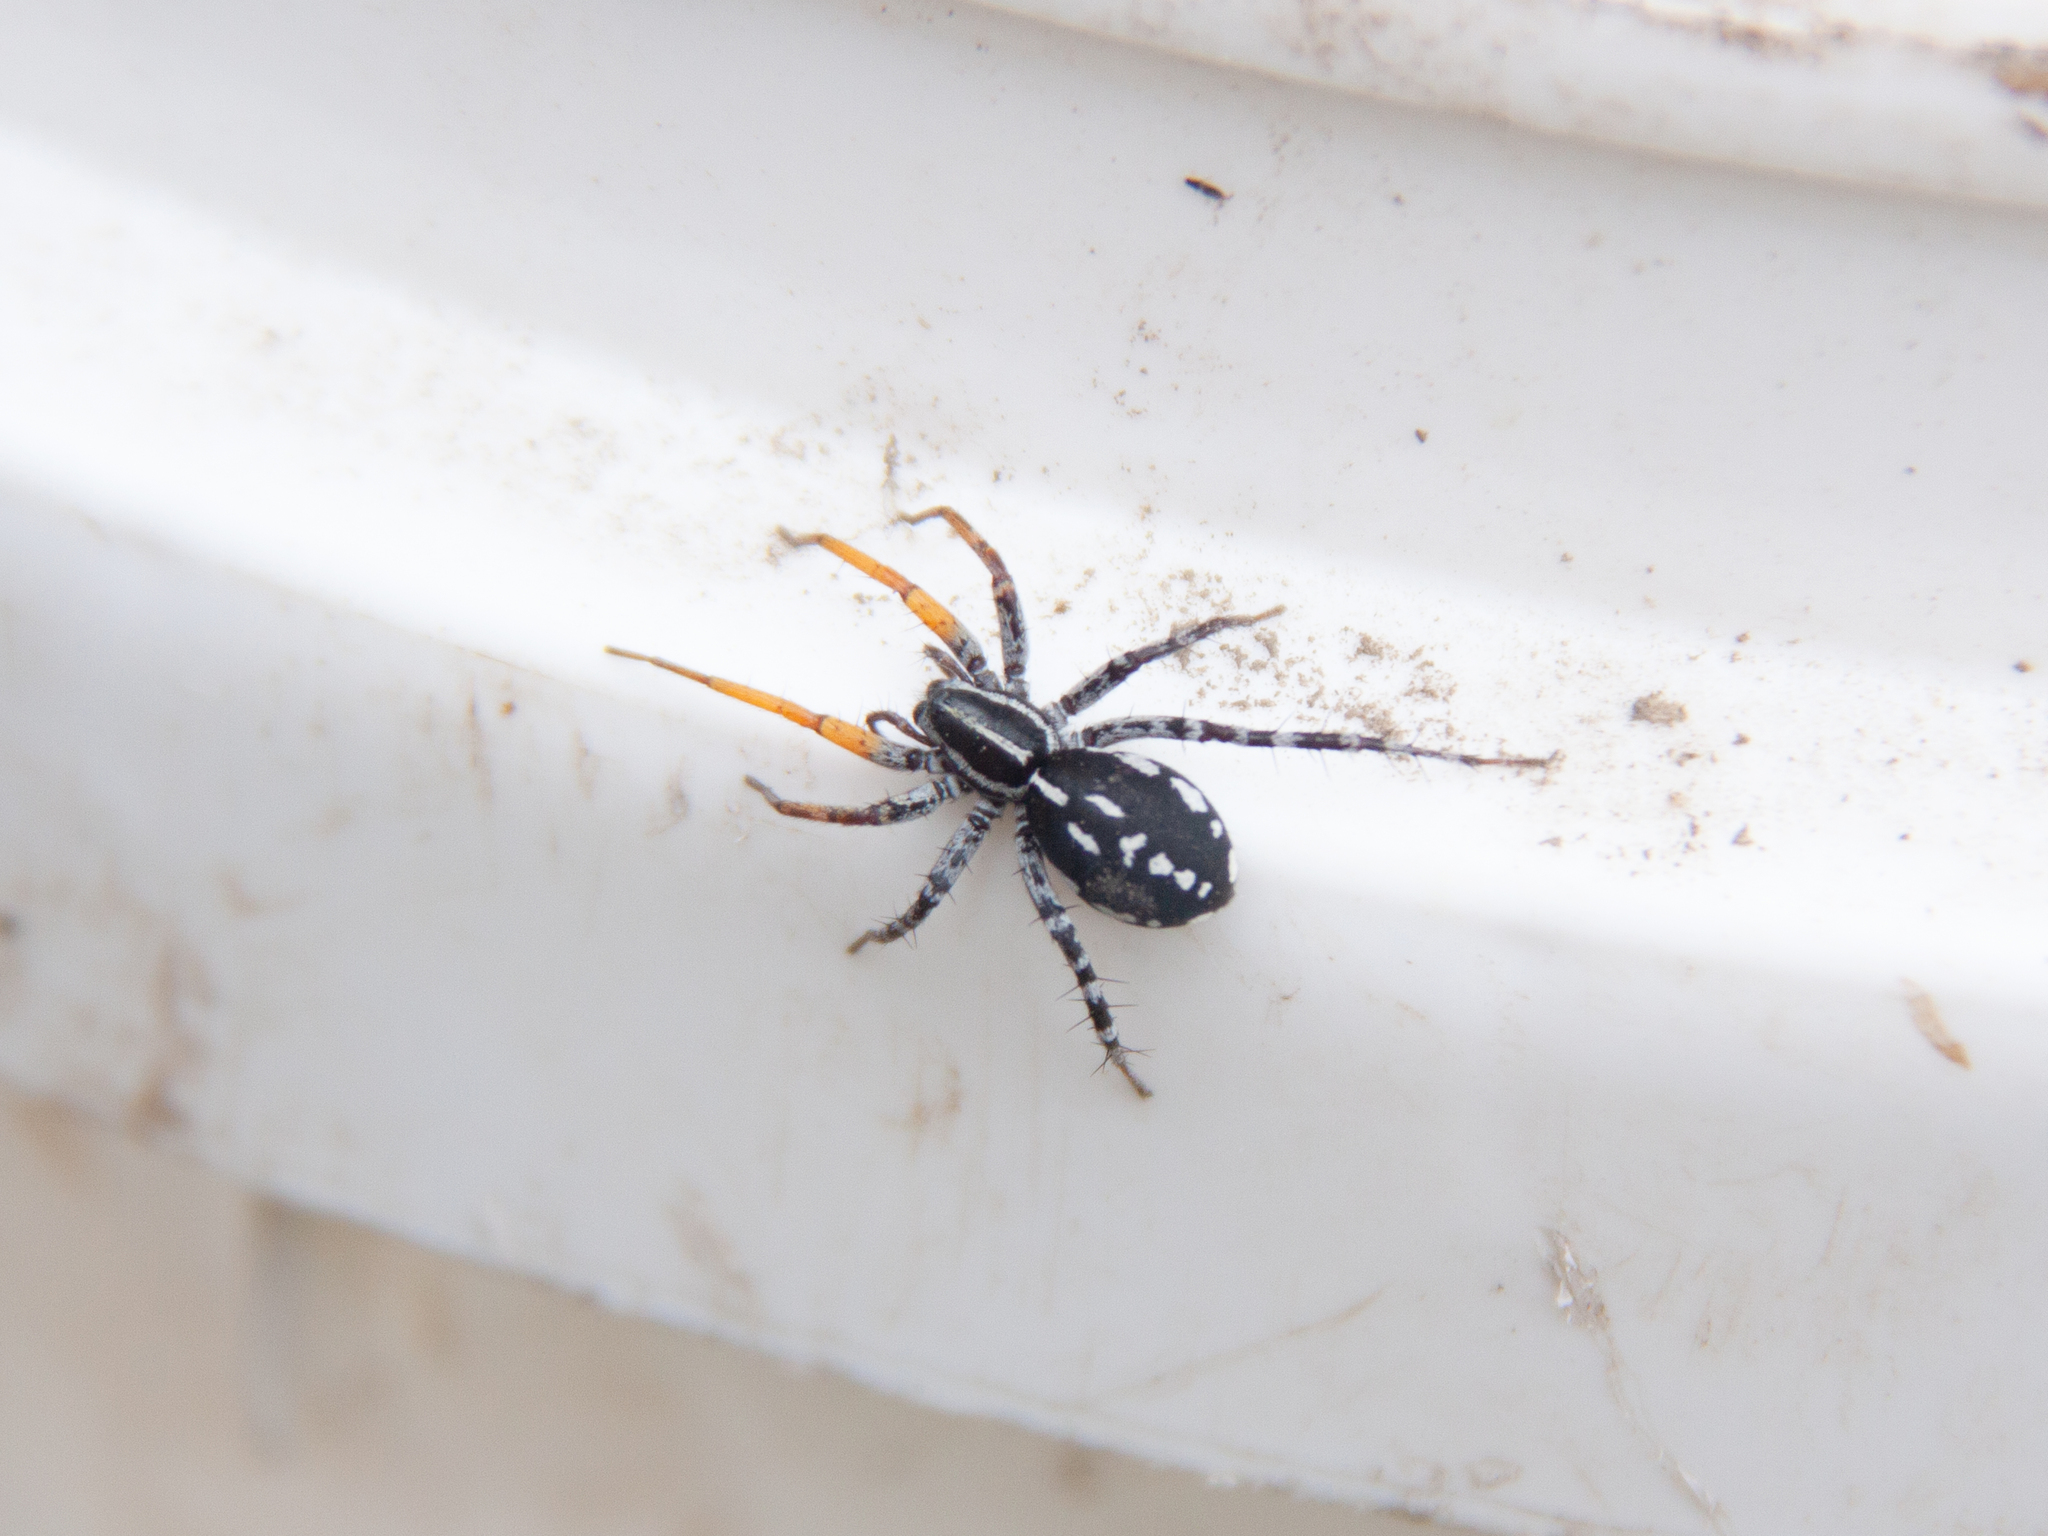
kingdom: Animalia
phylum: Arthropoda
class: Arachnida
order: Araneae
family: Corinnidae
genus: Nyssus
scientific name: Nyssus coloripes
